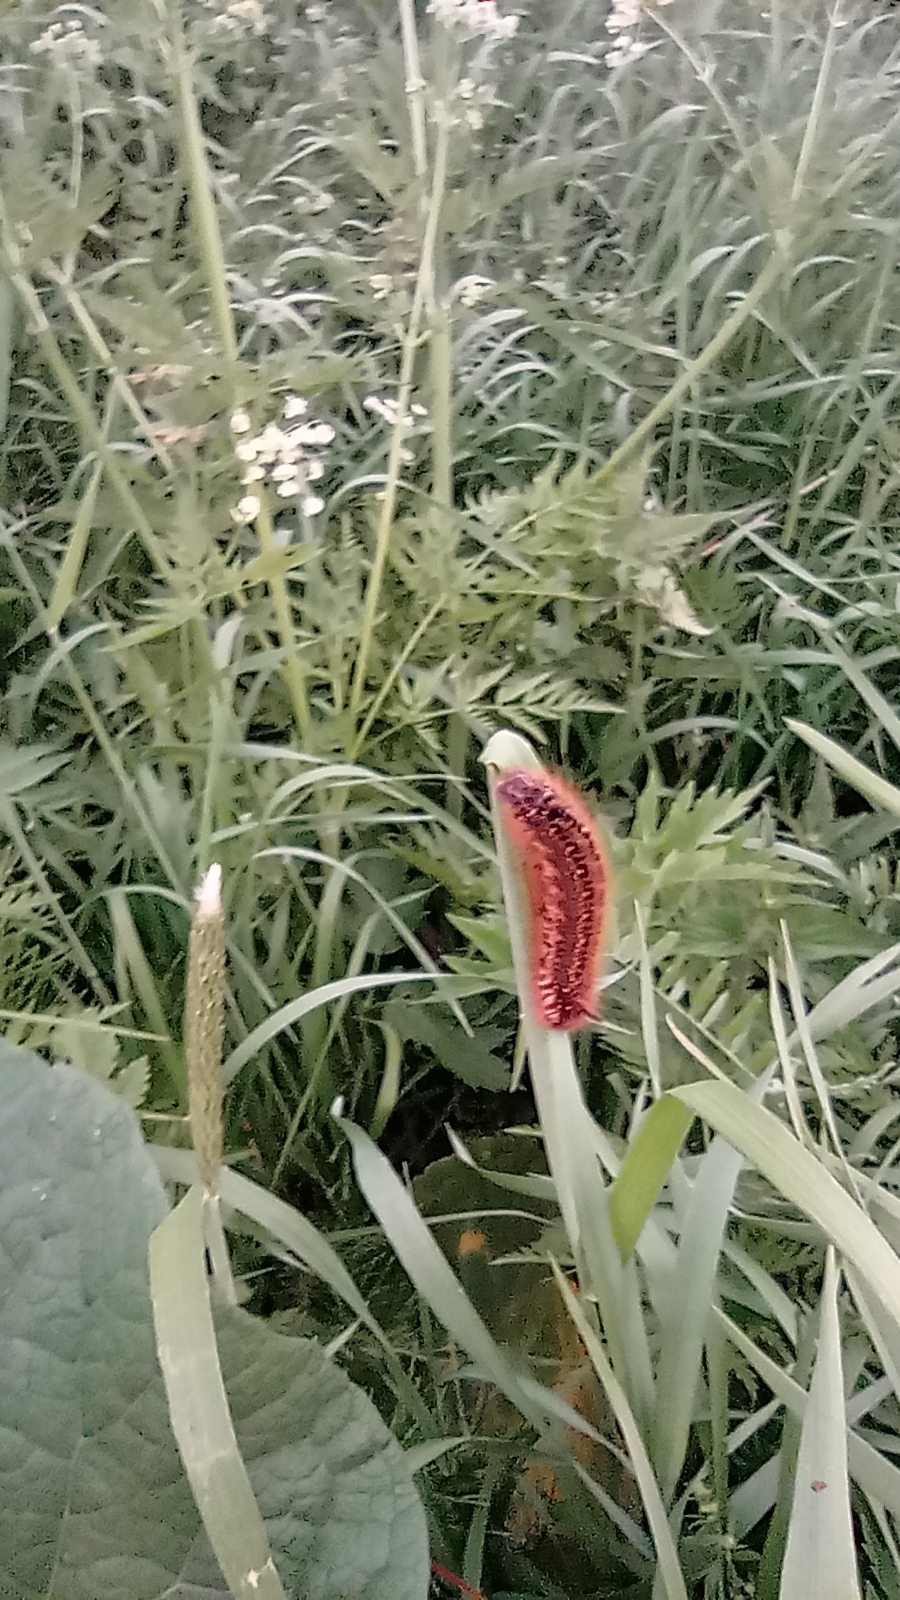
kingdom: Animalia
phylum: Arthropoda
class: Insecta
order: Lepidoptera
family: Lasiocampidae
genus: Euthrix
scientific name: Euthrix potatoria
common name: Drinker
